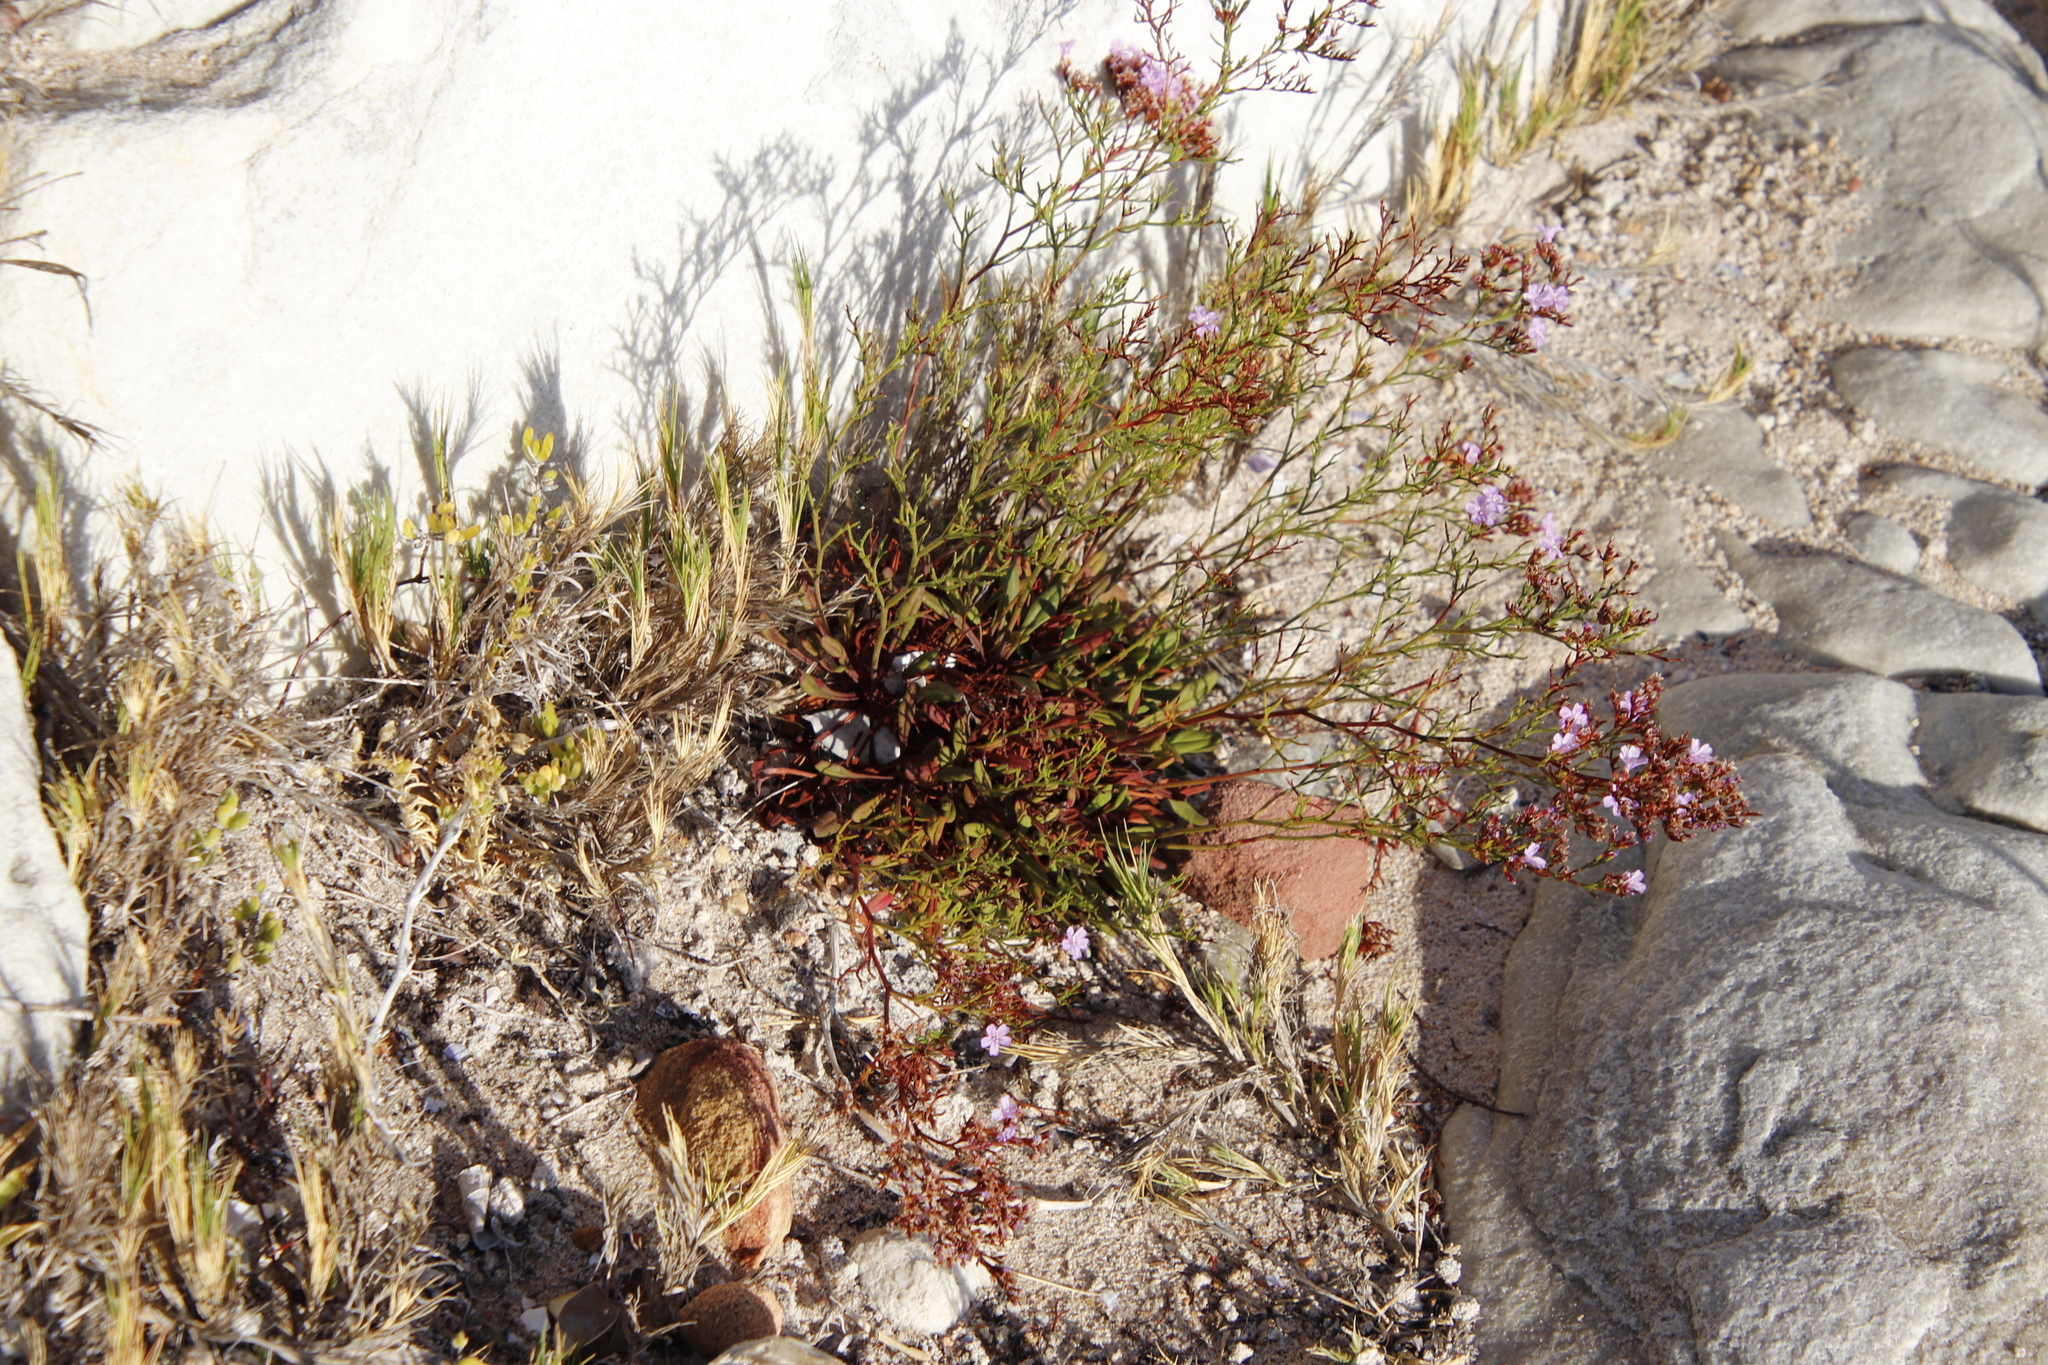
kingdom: Plantae
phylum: Tracheophyta
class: Magnoliopsida
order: Caryophyllales
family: Plumbaginaceae
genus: Limonium
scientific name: Limonium scabrum
